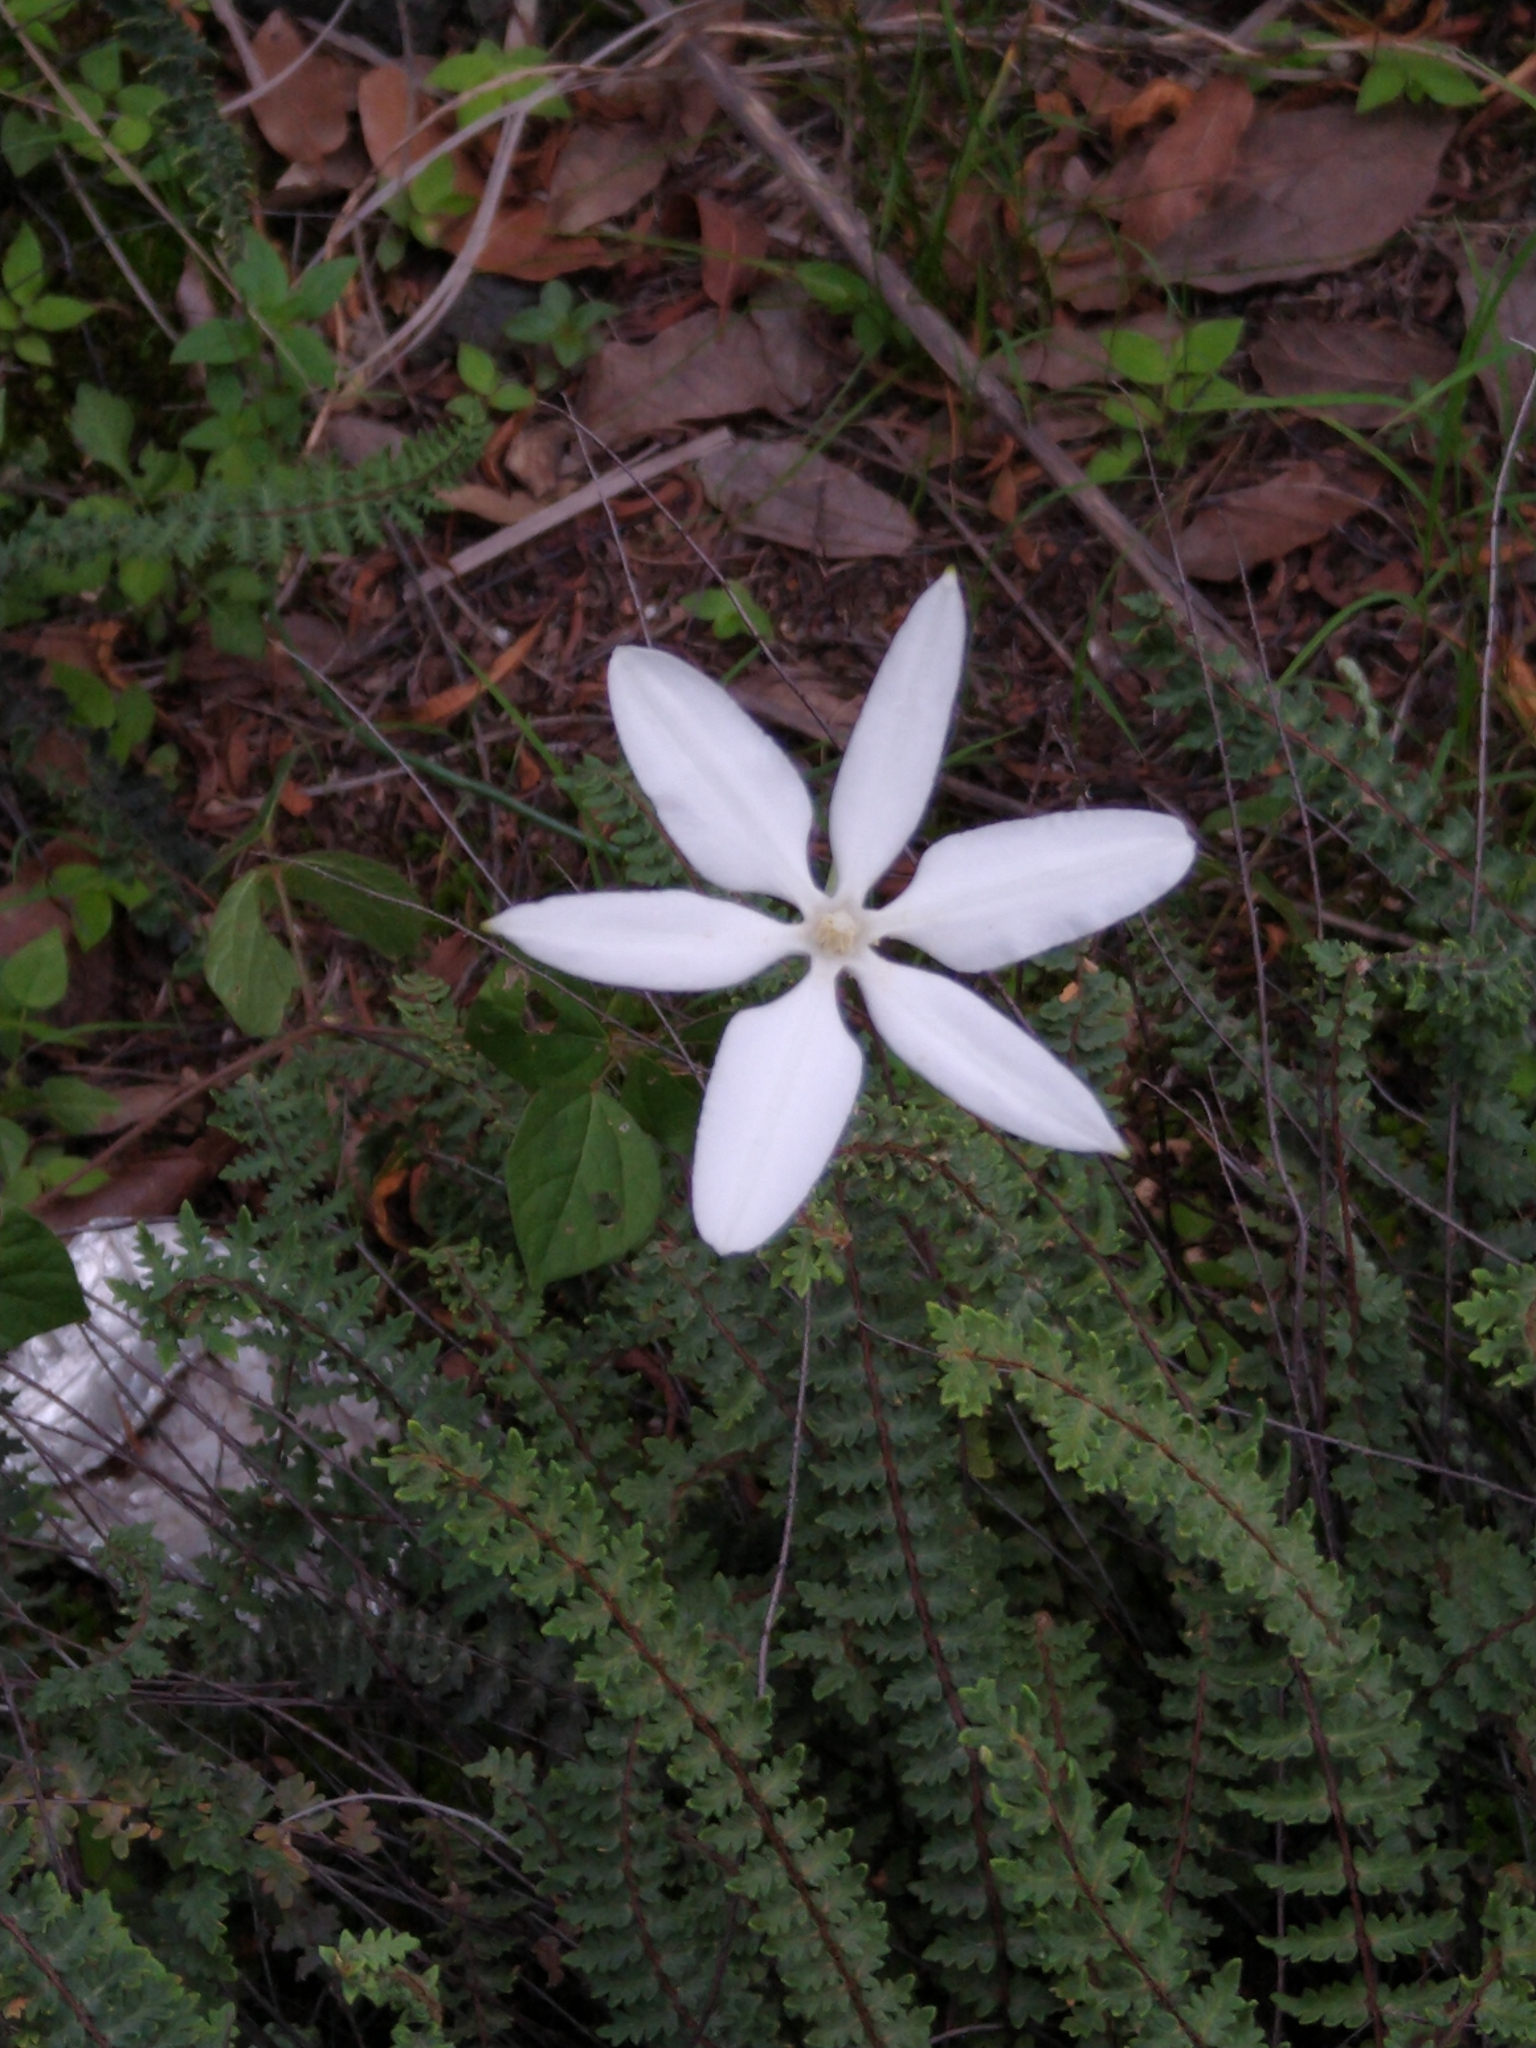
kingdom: Plantae
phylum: Tracheophyta
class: Liliopsida
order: Asparagales
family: Asparagaceae
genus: Milla
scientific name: Milla biflora
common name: Mexican-star
